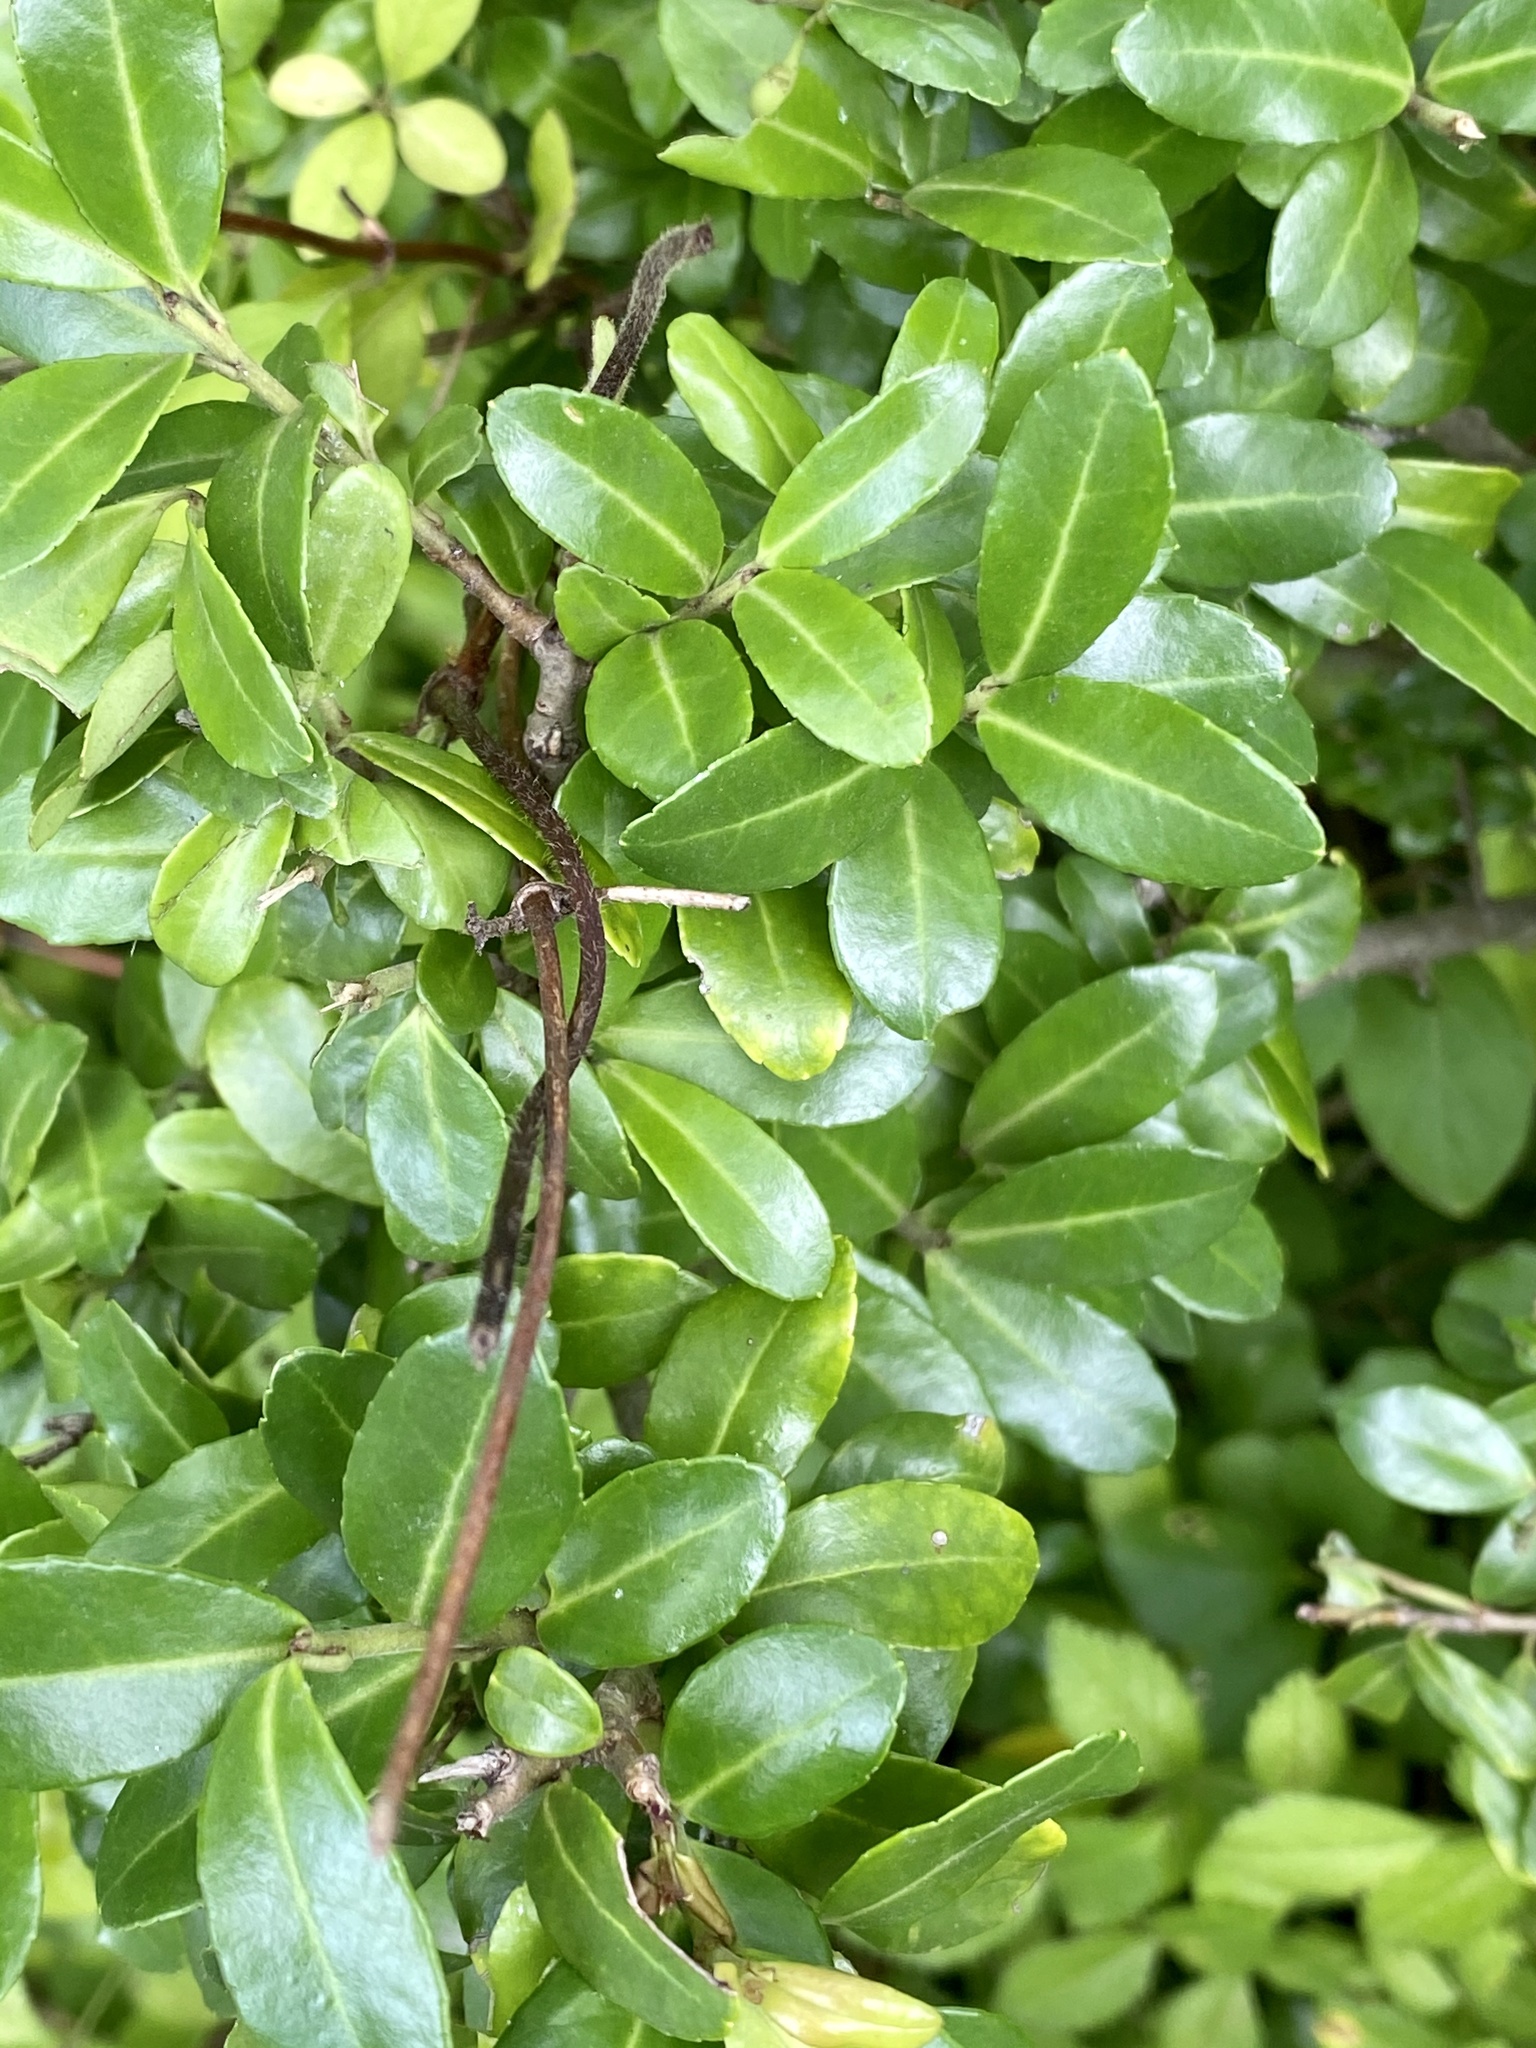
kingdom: Plantae
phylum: Tracheophyta
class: Magnoliopsida
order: Aquifoliales
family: Aquifoliaceae
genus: Ilex
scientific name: Ilex crenata
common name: Japanese holly
